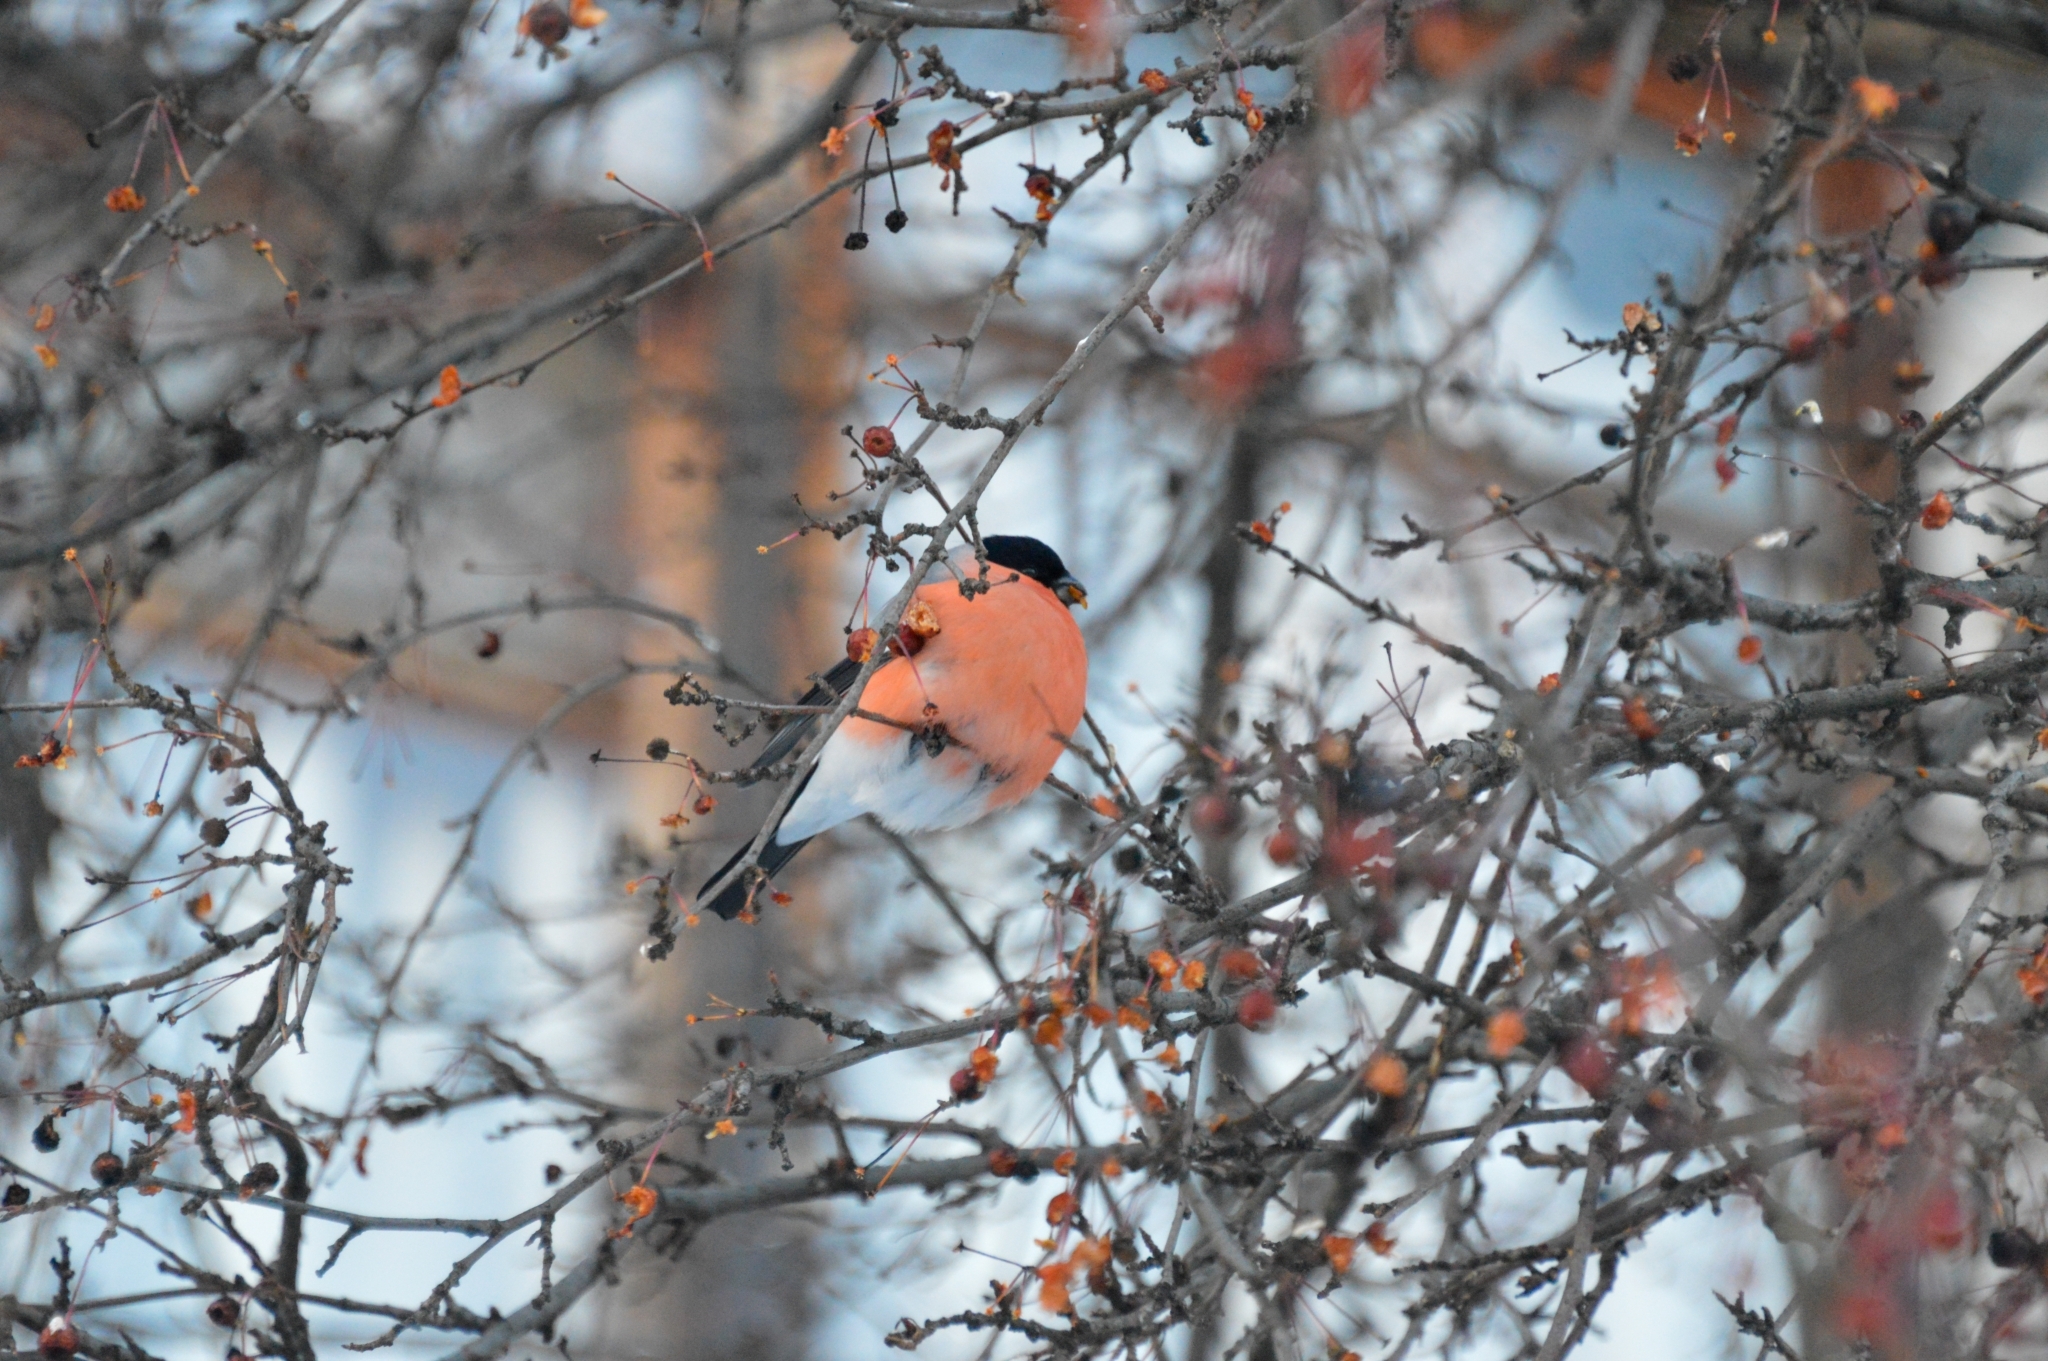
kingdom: Animalia
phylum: Chordata
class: Aves
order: Passeriformes
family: Fringillidae
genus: Pyrrhula
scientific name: Pyrrhula pyrrhula
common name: Eurasian bullfinch
